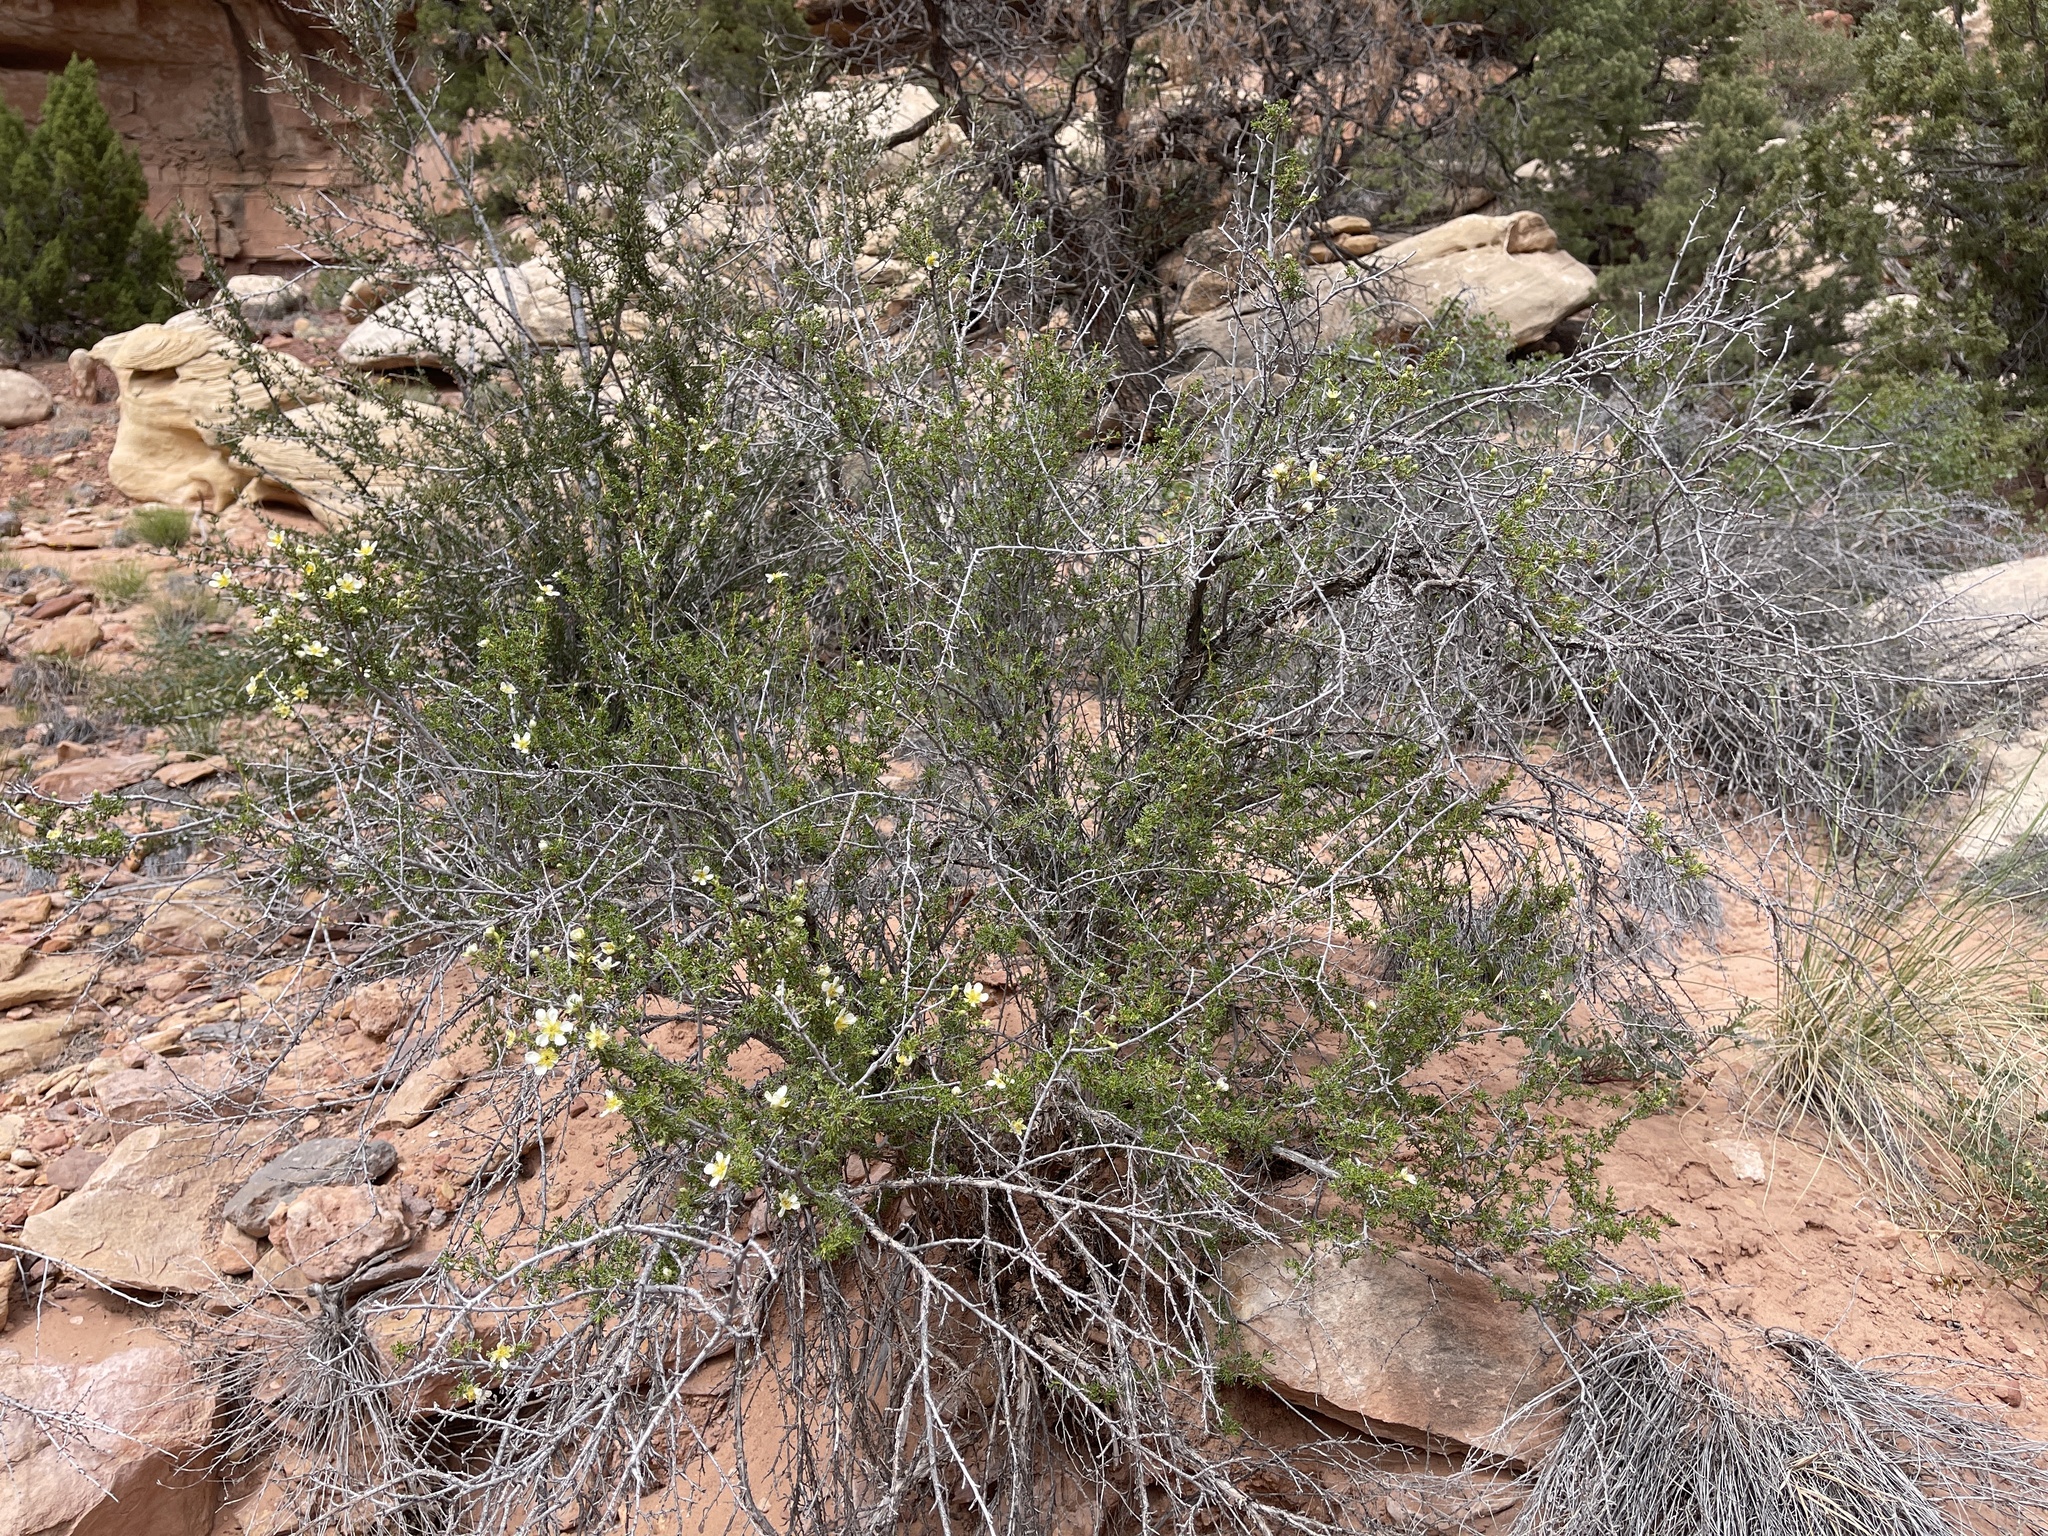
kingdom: Plantae
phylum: Tracheophyta
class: Magnoliopsida
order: Rosales
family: Rosaceae
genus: Purshia
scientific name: Purshia stansburiana
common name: Stansbury's cliffrose
